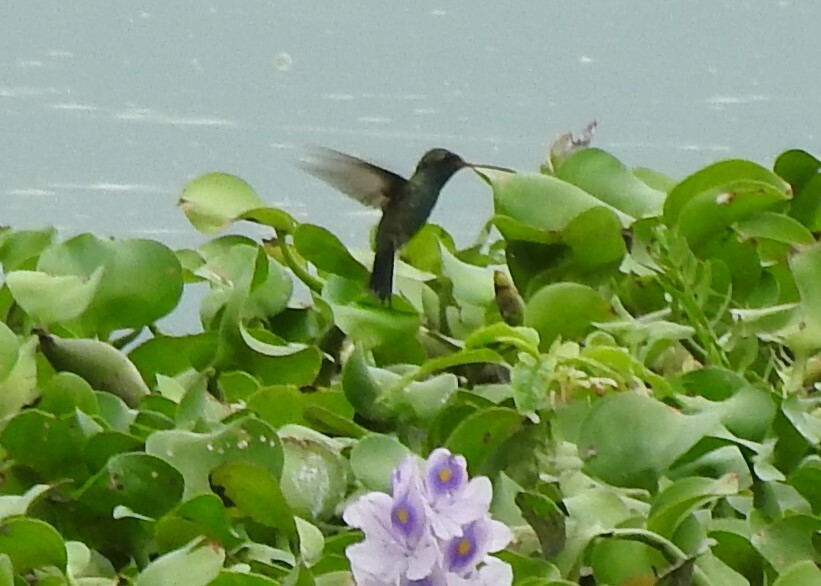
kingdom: Animalia
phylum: Chordata
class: Aves
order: Apodiformes
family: Trochilidae
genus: Cynanthus
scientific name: Cynanthus latirostris
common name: Broad-billed hummingbird
